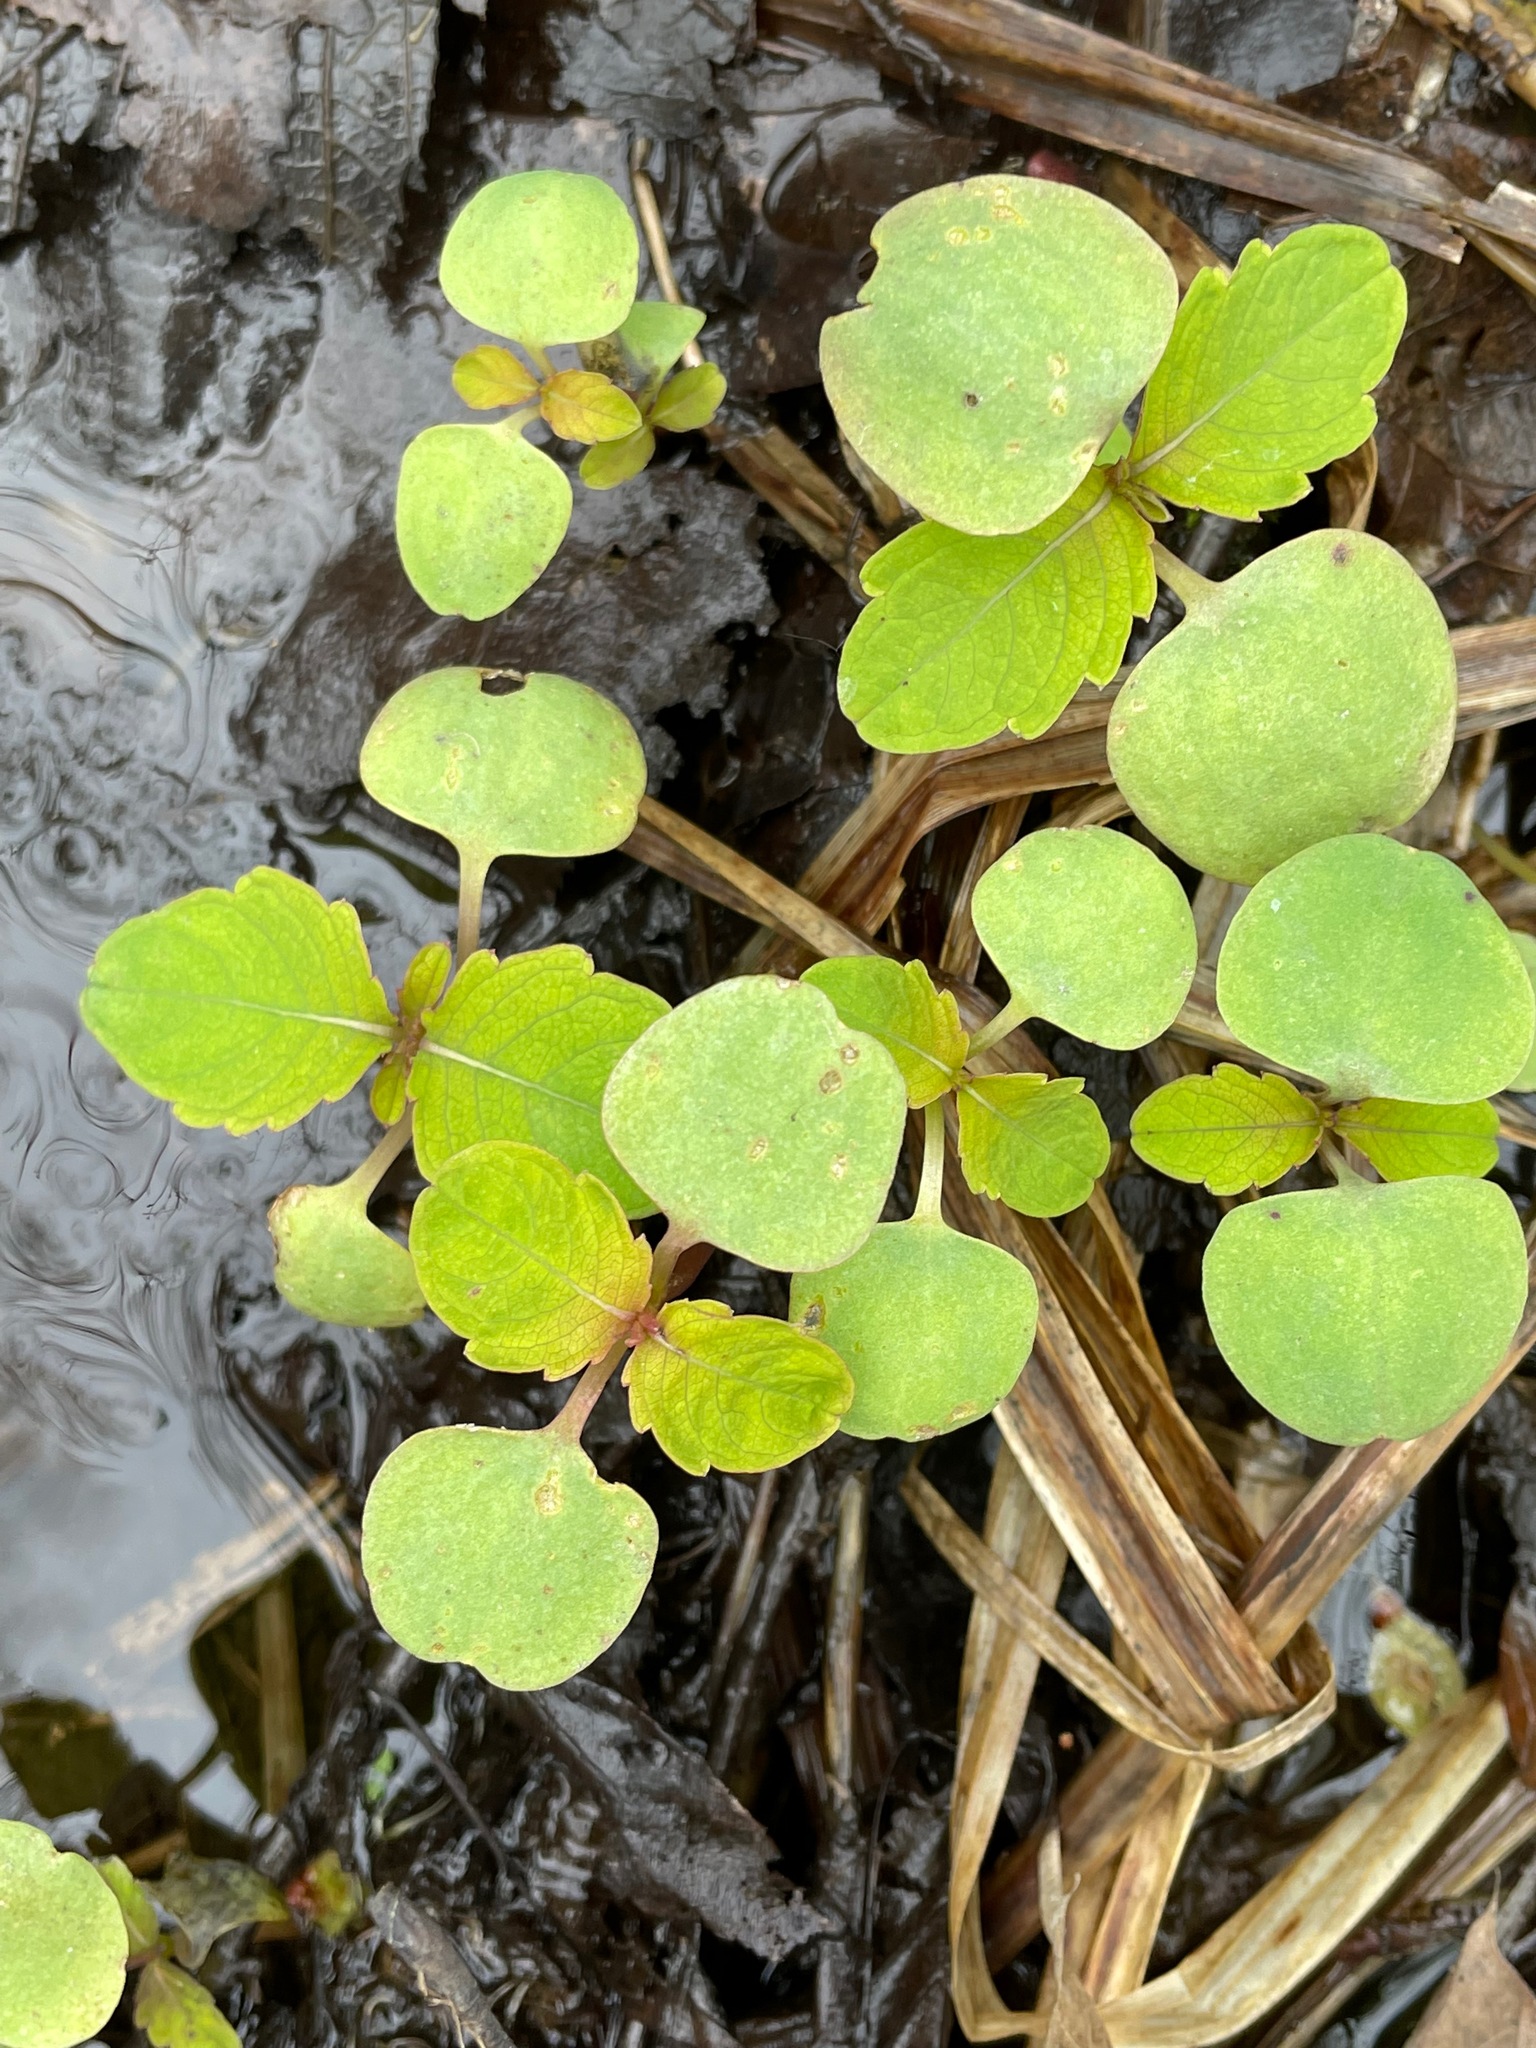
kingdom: Plantae
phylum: Tracheophyta
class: Magnoliopsida
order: Ericales
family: Balsaminaceae
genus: Impatiens
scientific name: Impatiens
